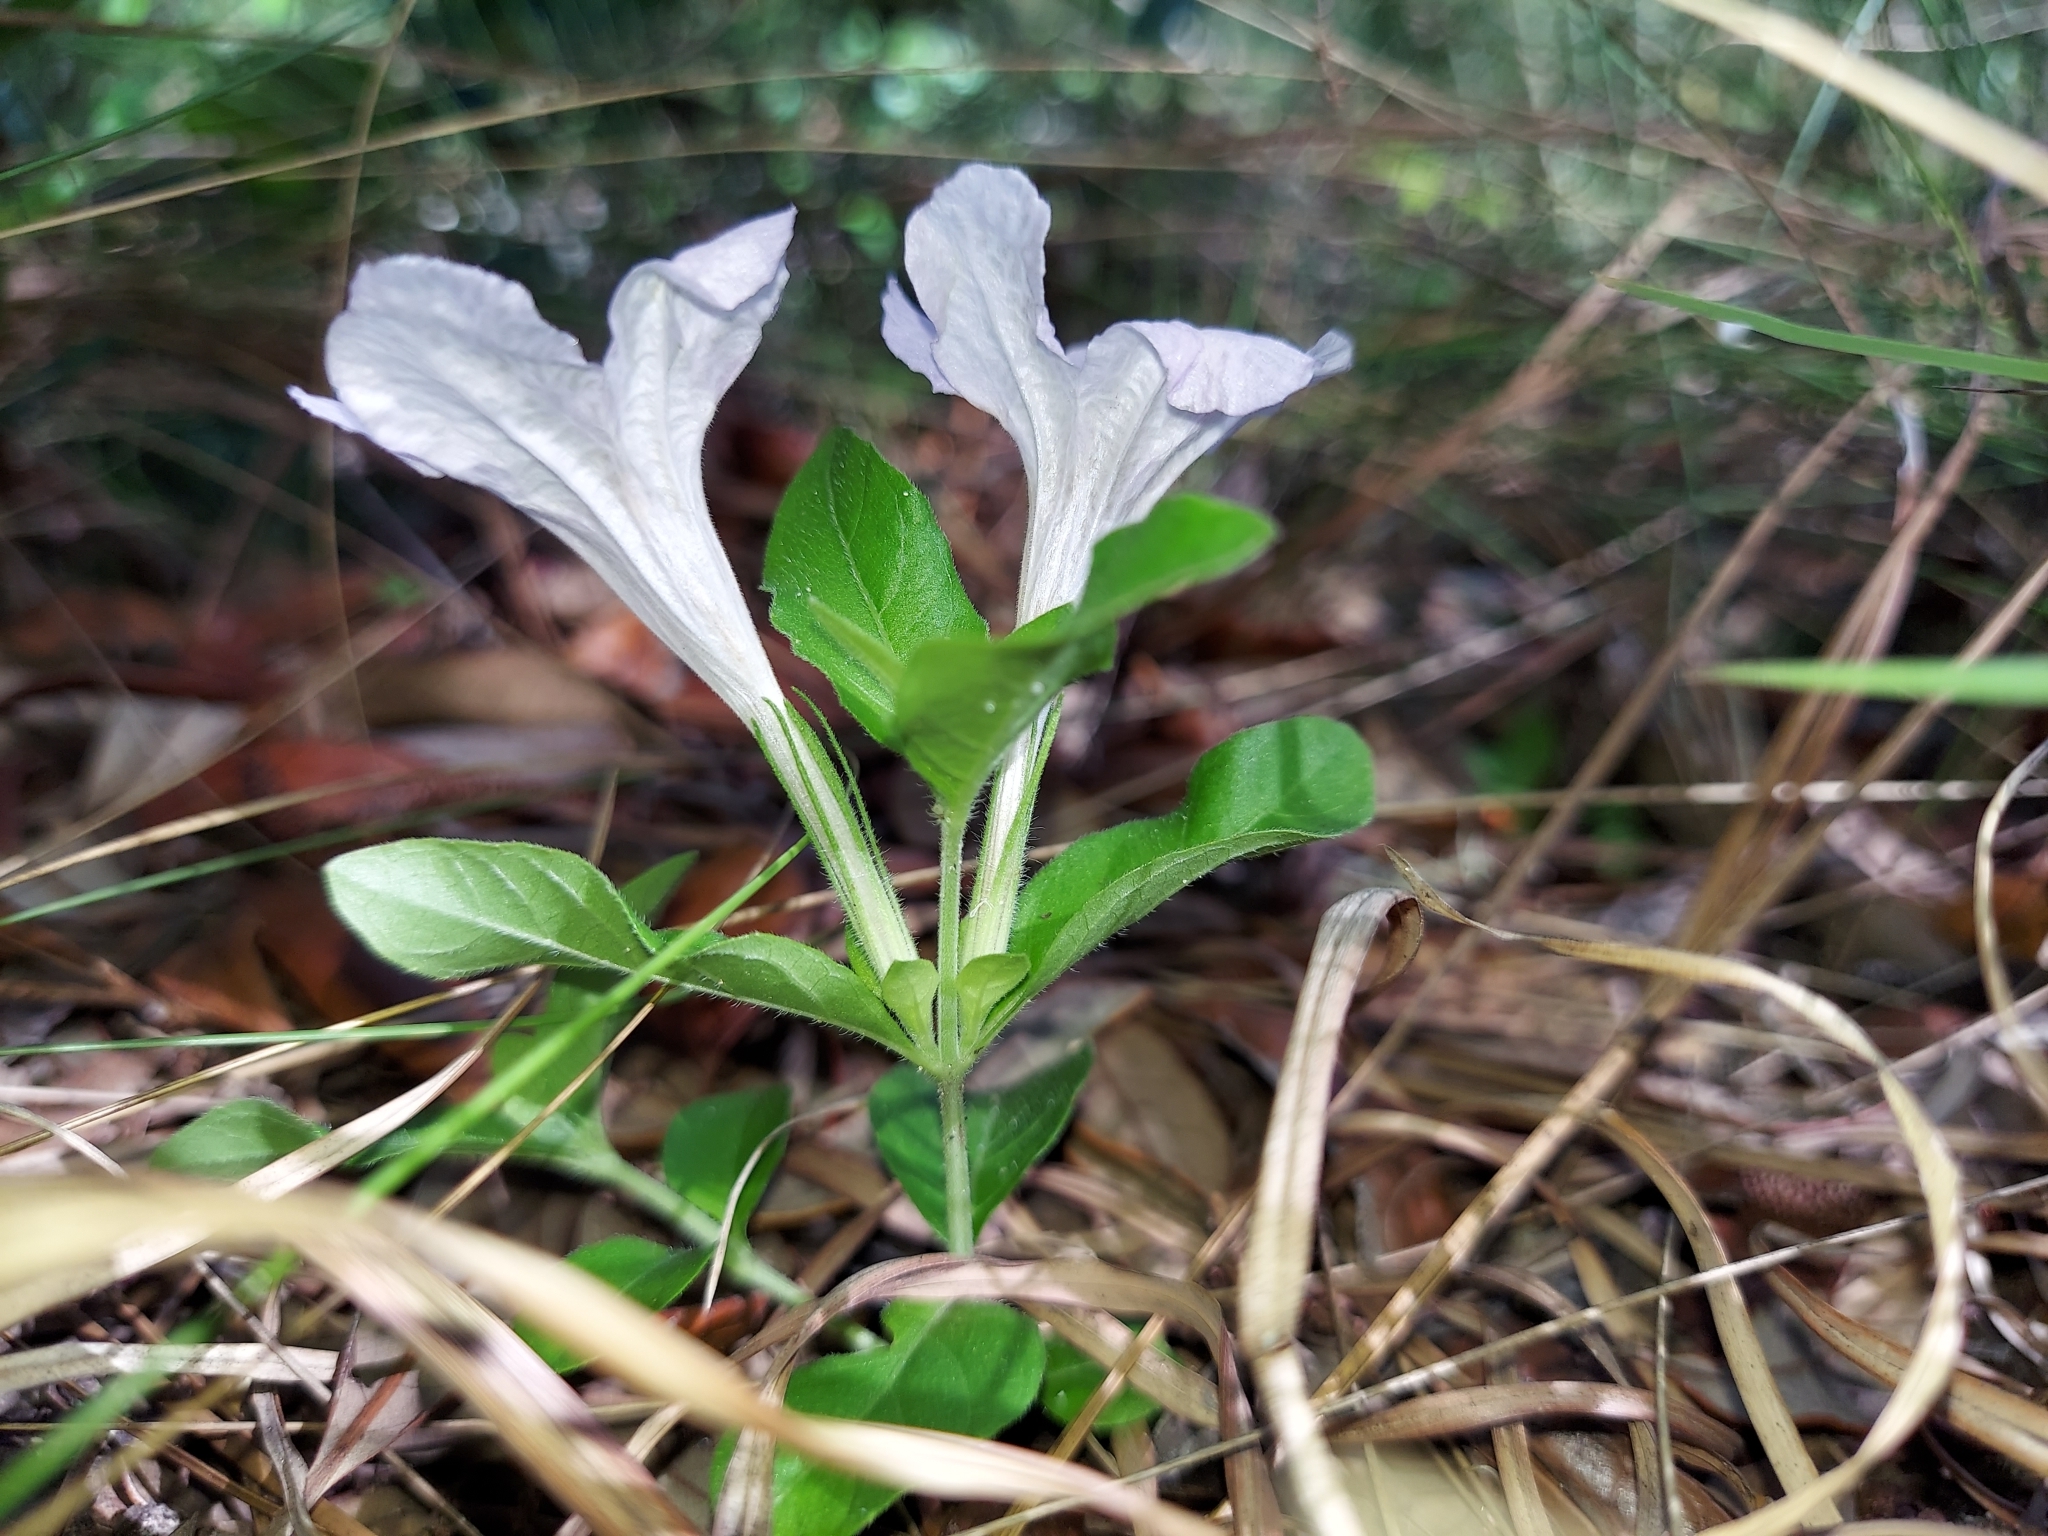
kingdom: Plantae
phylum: Tracheophyta
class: Magnoliopsida
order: Lamiales
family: Acanthaceae
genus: Ruellia
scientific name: Ruellia caroliniensis
